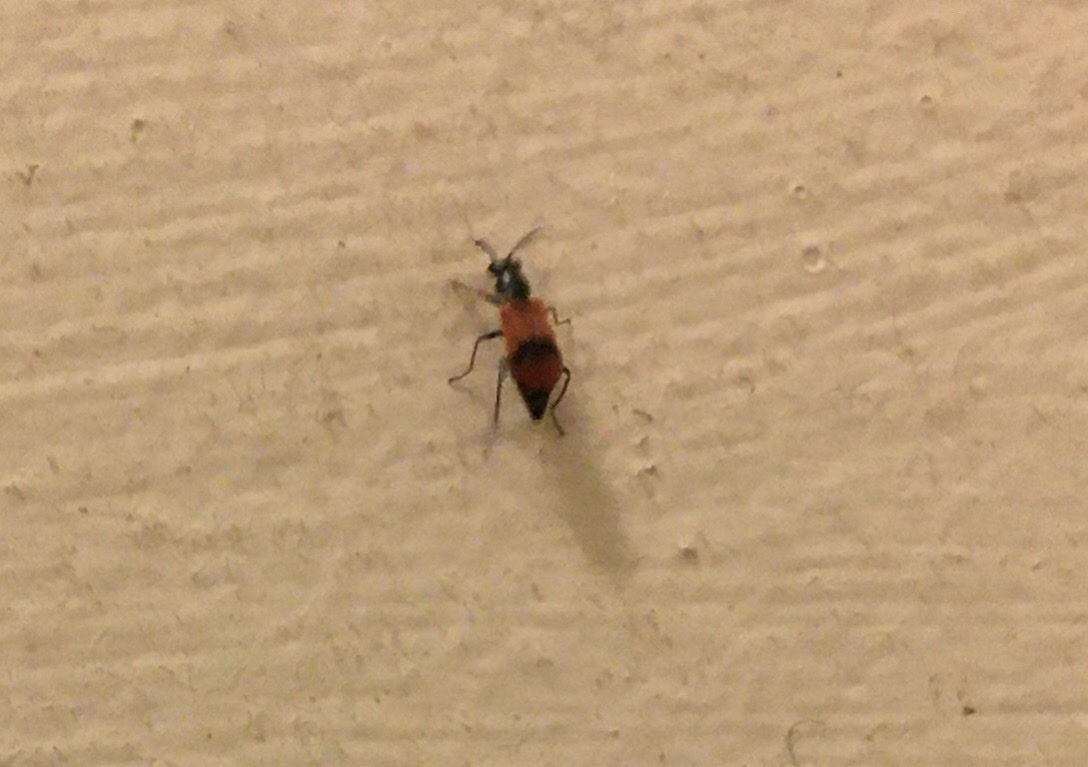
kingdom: Animalia
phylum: Arthropoda
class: Insecta
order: Coleoptera
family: Melyridae
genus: Anthocomus
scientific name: Anthocomus equestris
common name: Black-banded soft-winged flower beetle
